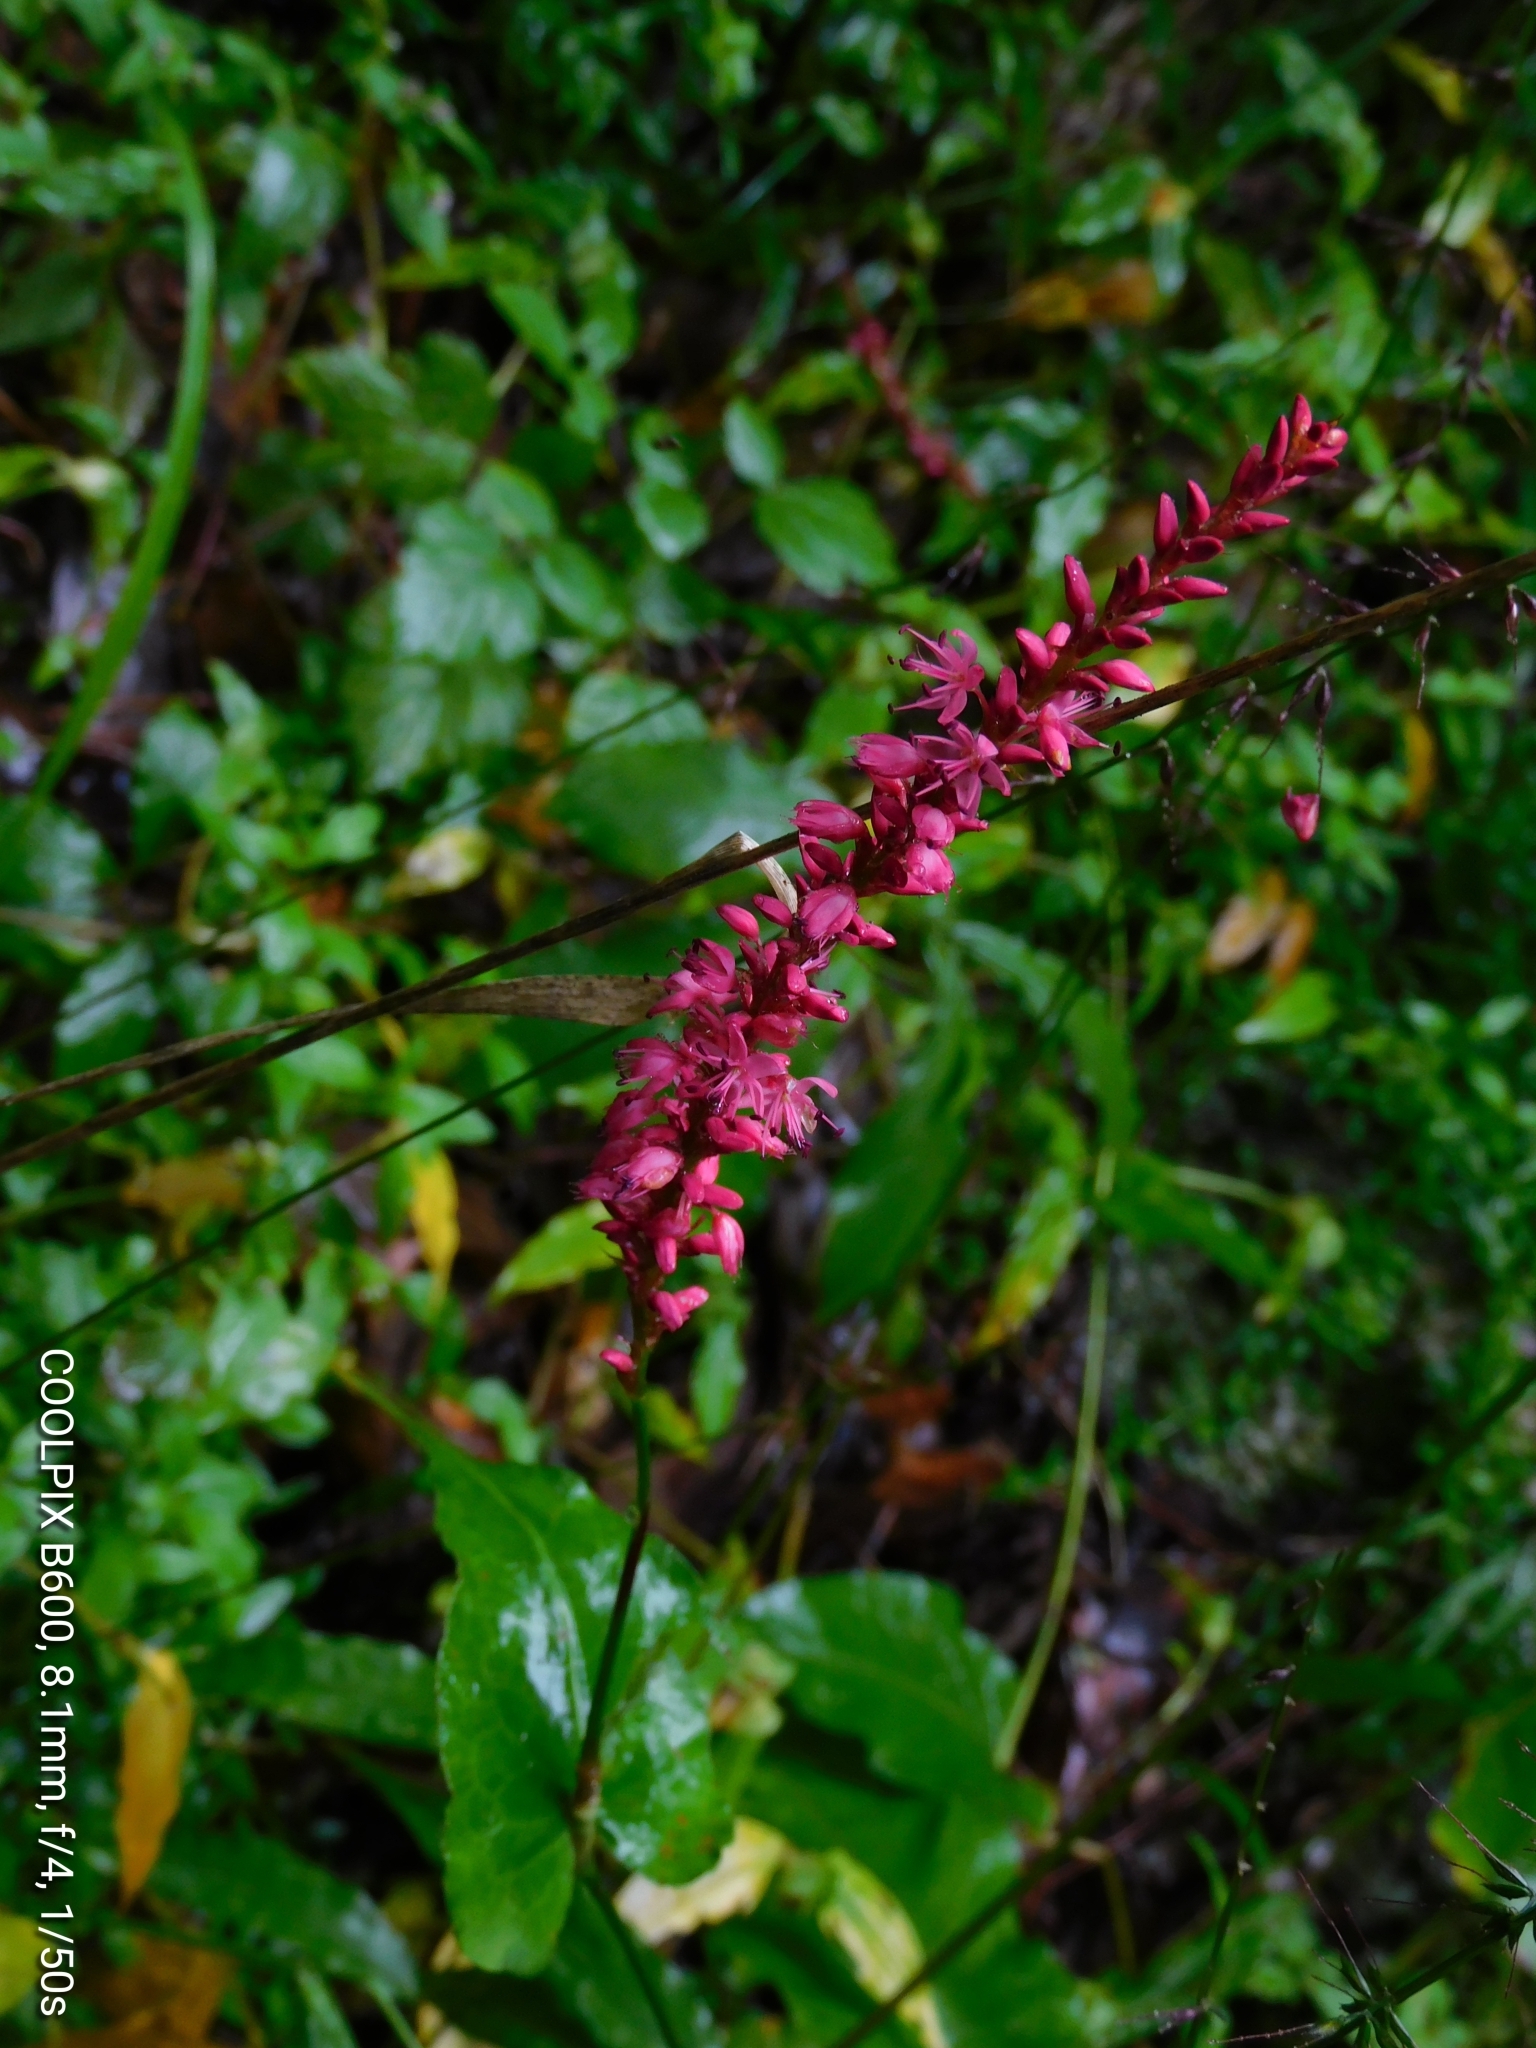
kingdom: Plantae
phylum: Tracheophyta
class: Magnoliopsida
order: Caryophyllales
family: Polygonaceae
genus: Bistorta
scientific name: Bistorta amplexicaulis
